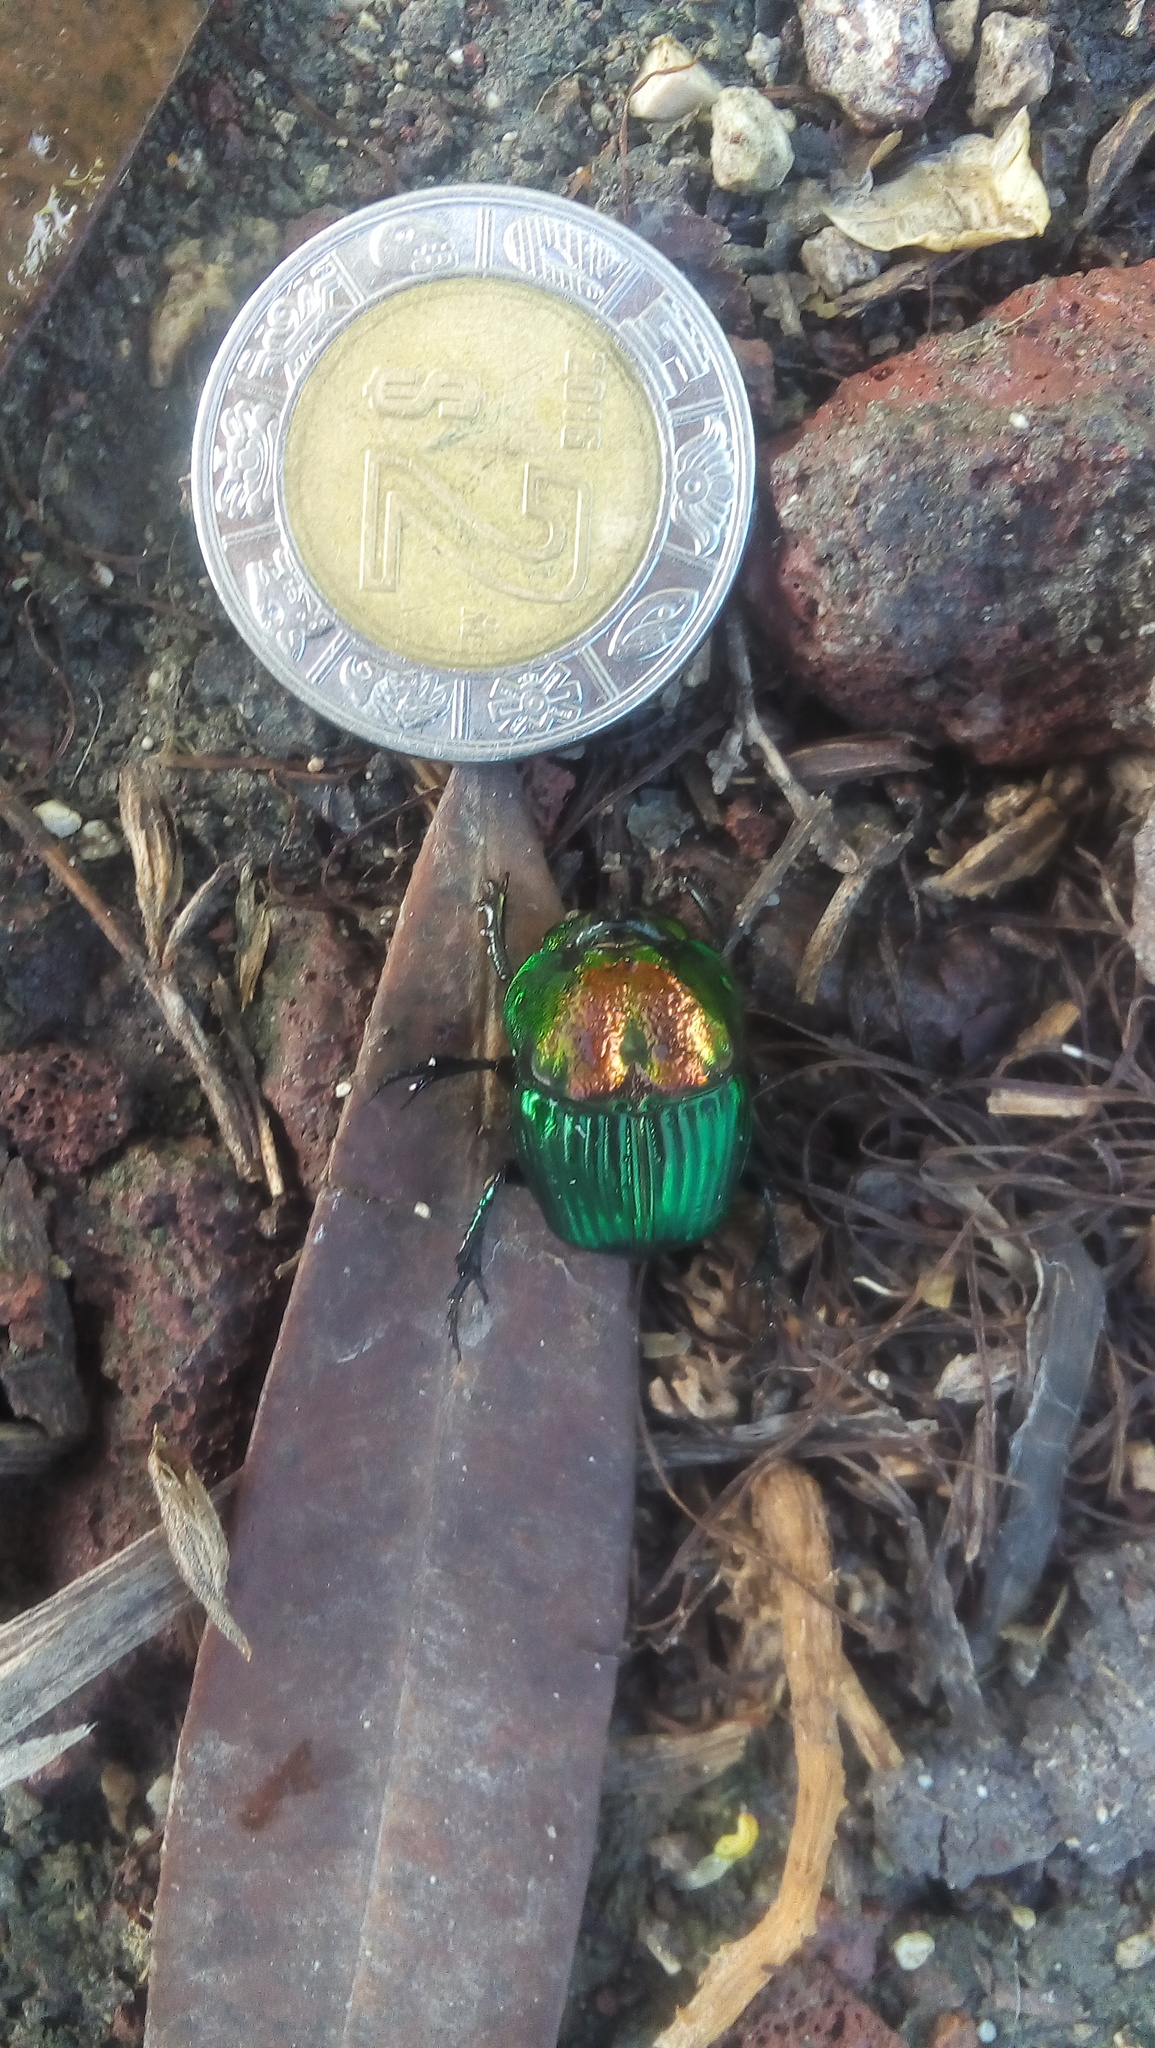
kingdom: Animalia
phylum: Arthropoda
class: Insecta
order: Coleoptera
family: Scarabaeidae
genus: Phanaeus
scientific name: Phanaeus tridens
